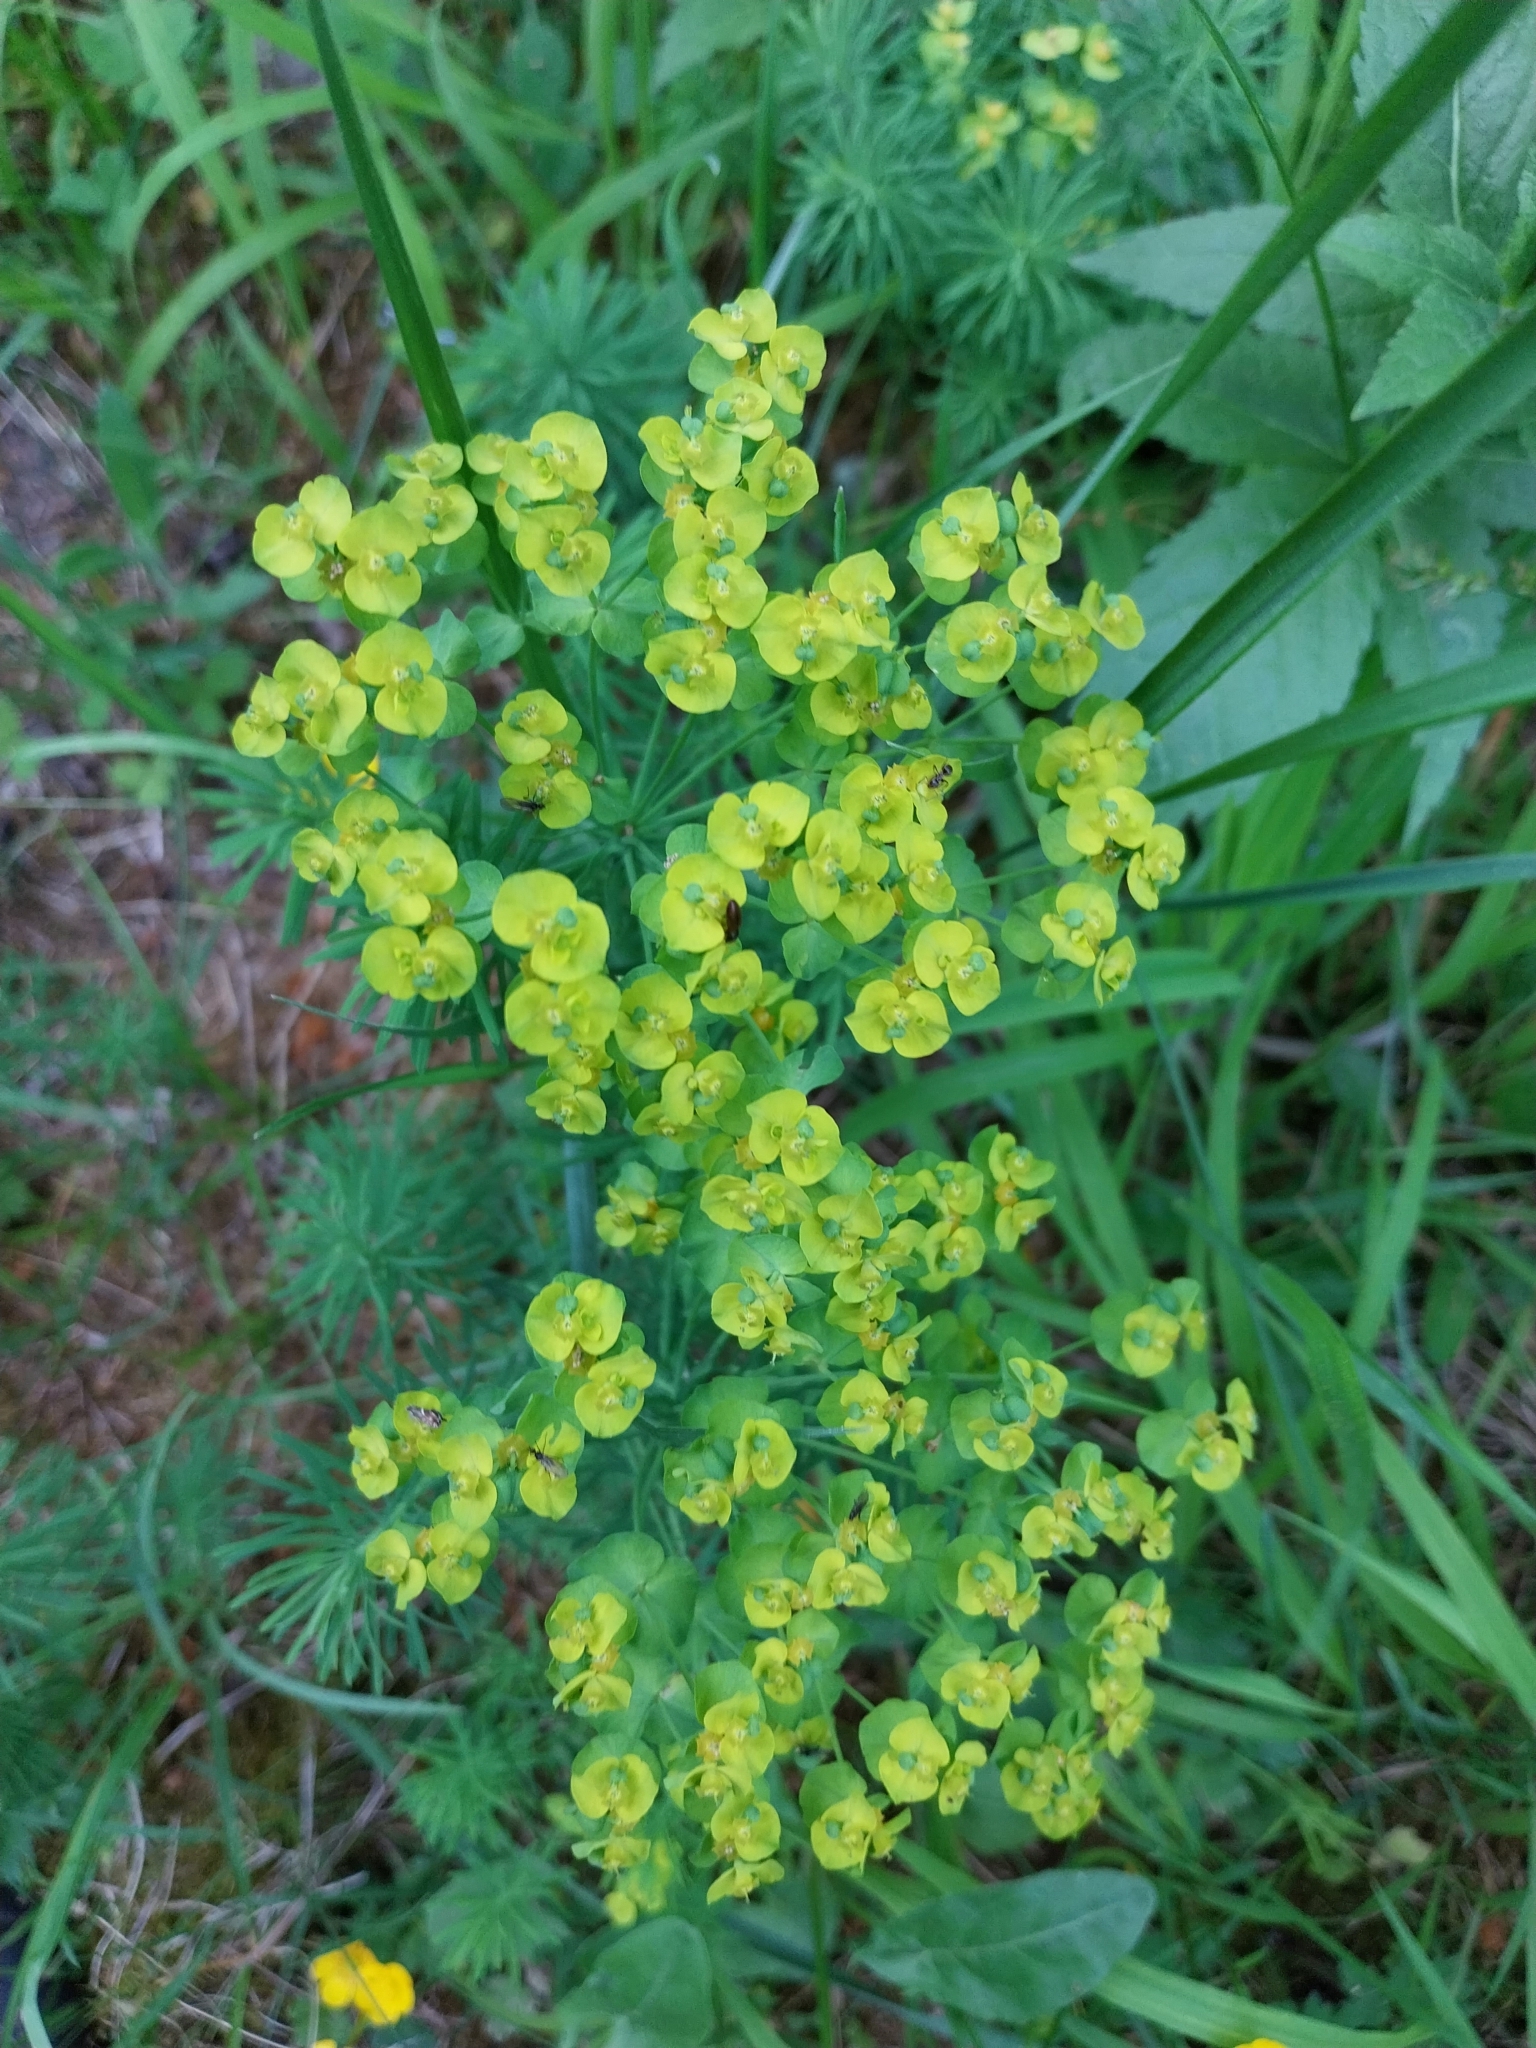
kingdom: Plantae
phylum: Tracheophyta
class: Magnoliopsida
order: Malpighiales
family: Euphorbiaceae
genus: Euphorbia
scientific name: Euphorbia cyparissias
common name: Cypress spurge
